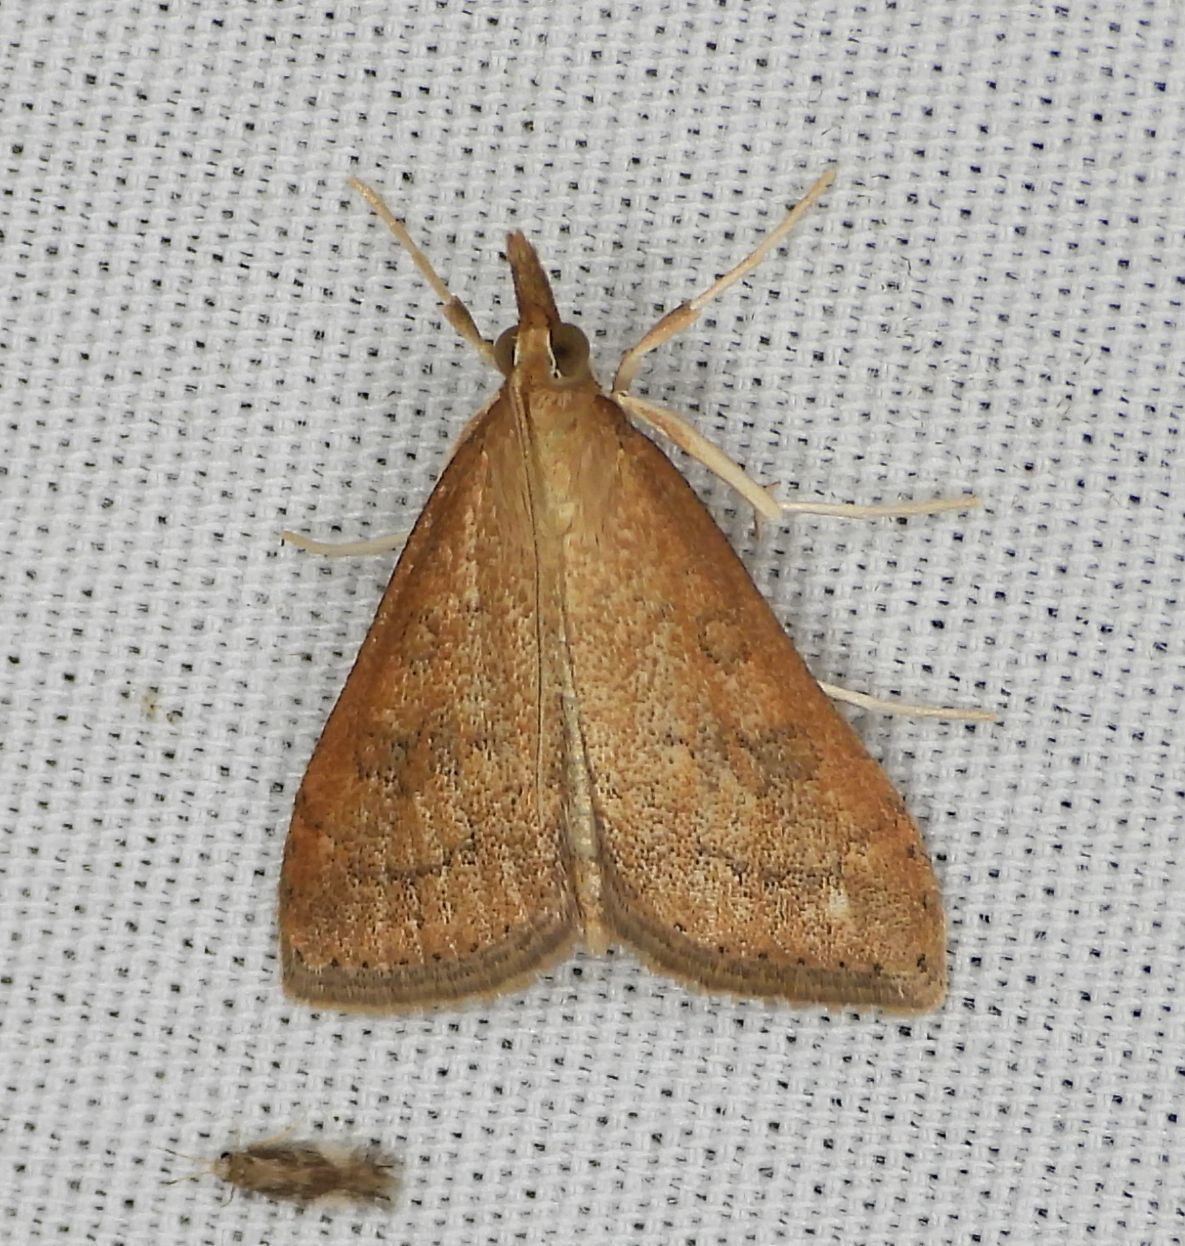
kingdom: Animalia
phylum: Arthropoda
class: Insecta
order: Lepidoptera
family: Crambidae
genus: Udea
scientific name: Udea rubigalis
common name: Celery leaftier moth
